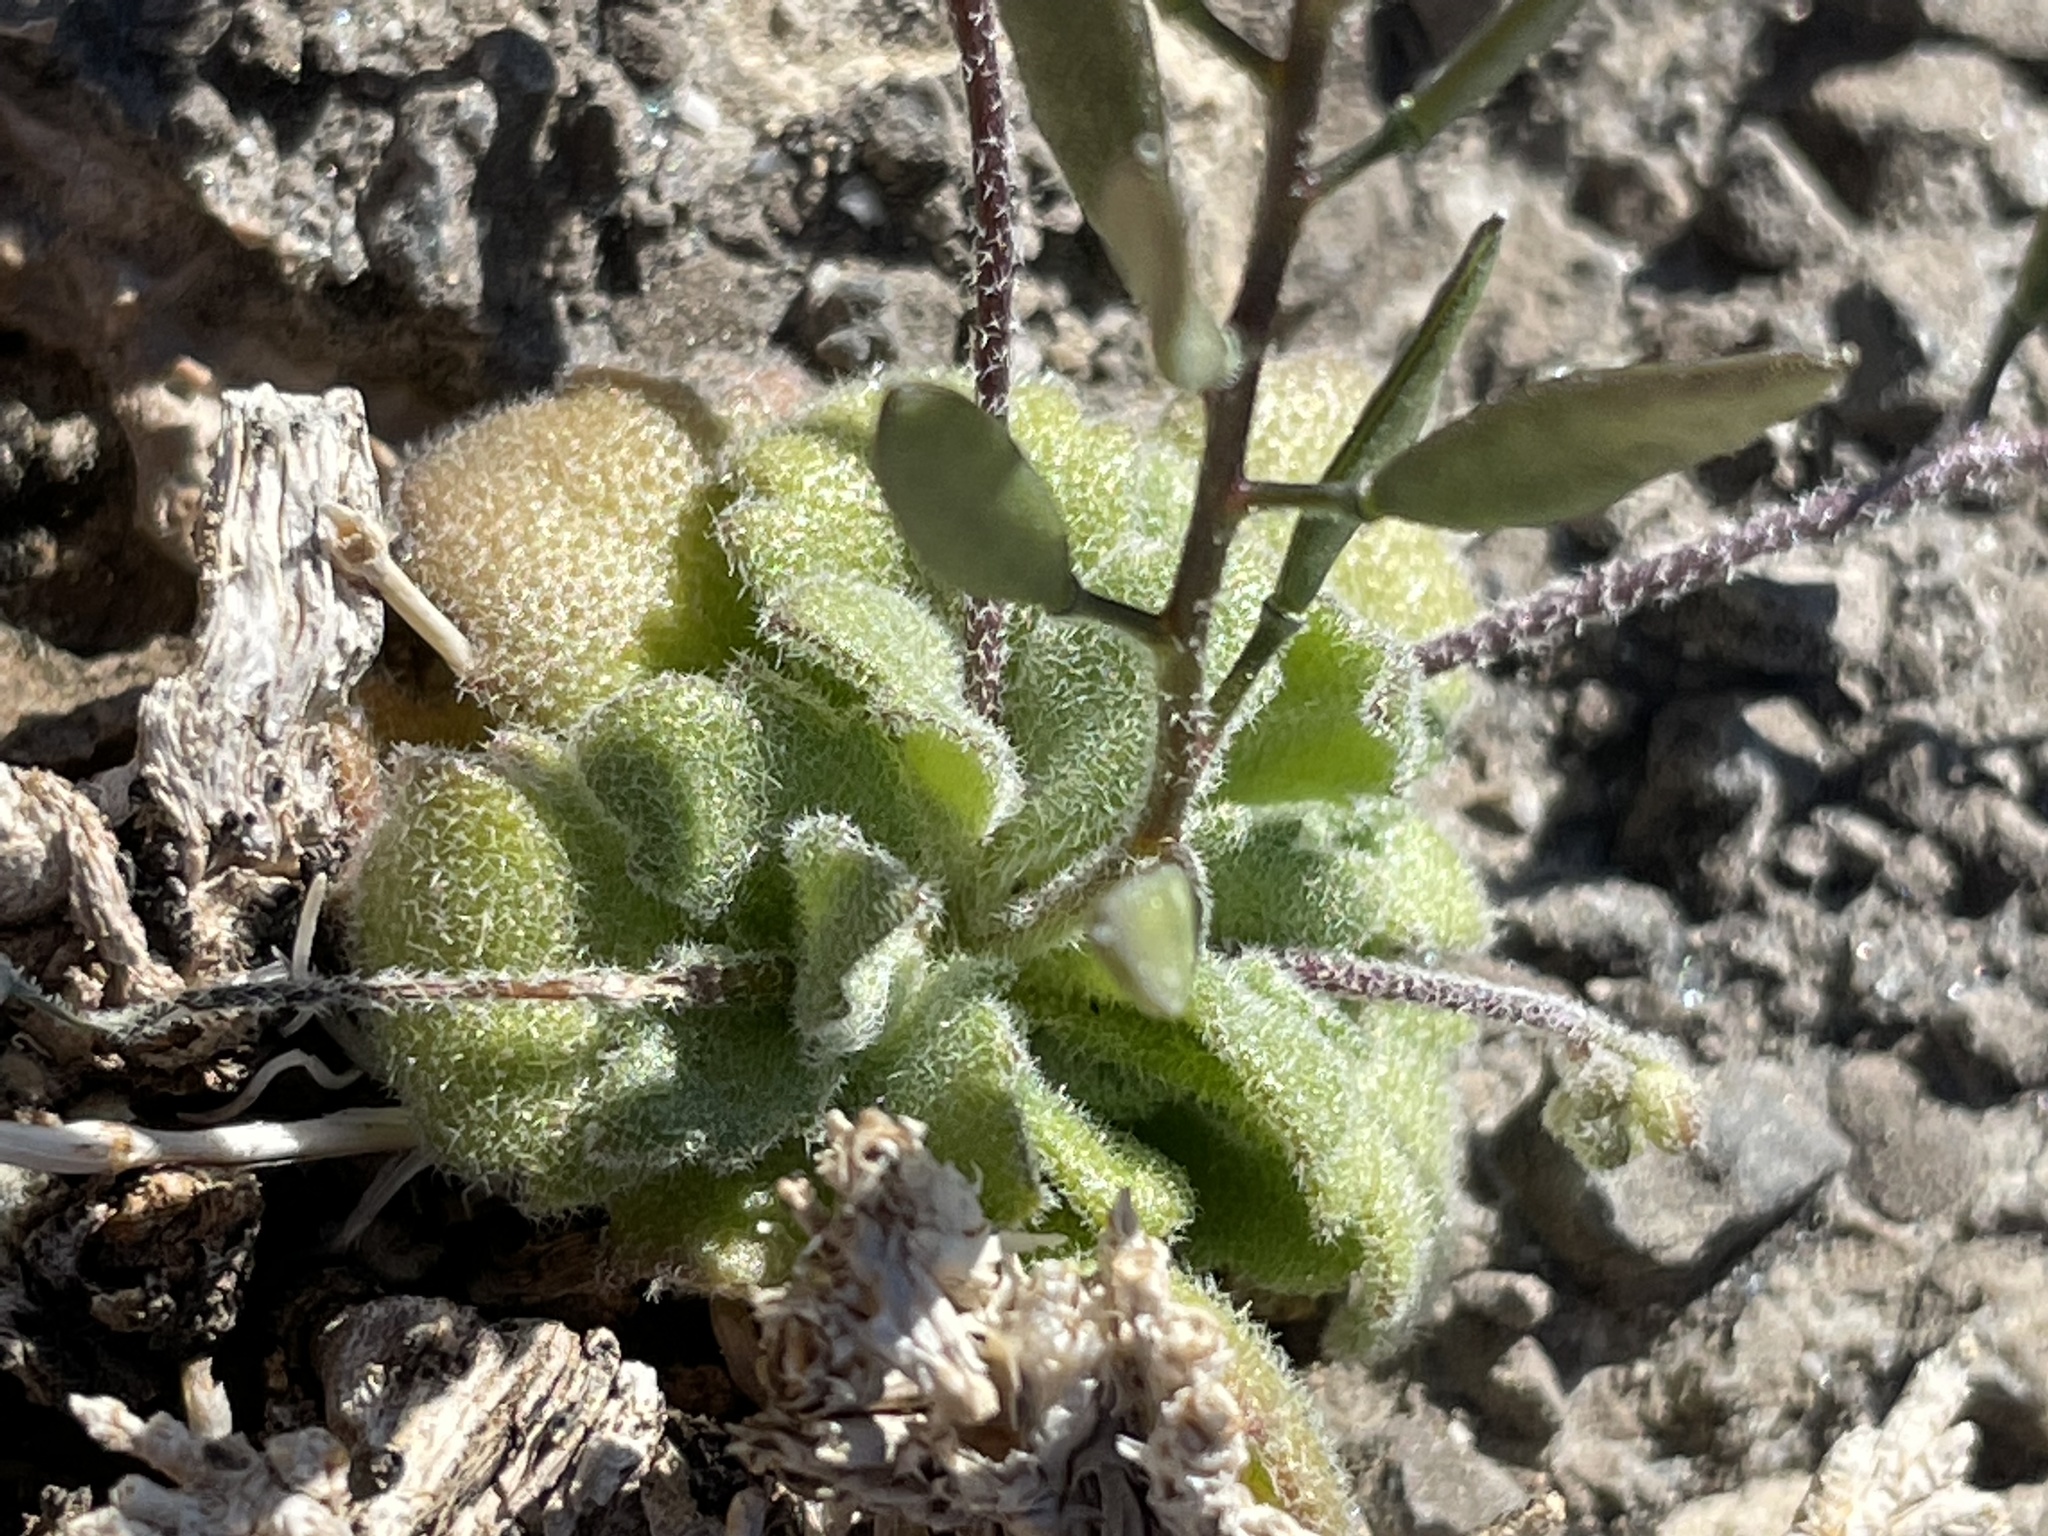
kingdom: Plantae
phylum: Tracheophyta
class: Magnoliopsida
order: Brassicales
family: Brassicaceae
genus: Tomostima
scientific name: Tomostima cuneifolia
